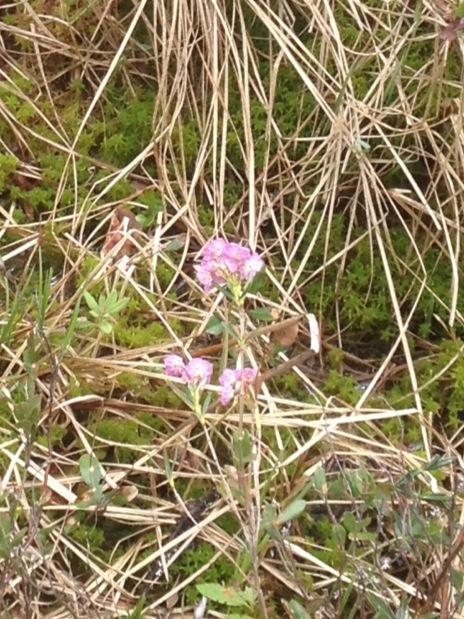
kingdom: Plantae
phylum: Tracheophyta
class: Magnoliopsida
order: Ericales
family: Ericaceae
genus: Kalmia
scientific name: Kalmia angustifolia
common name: Sheep-laurel
